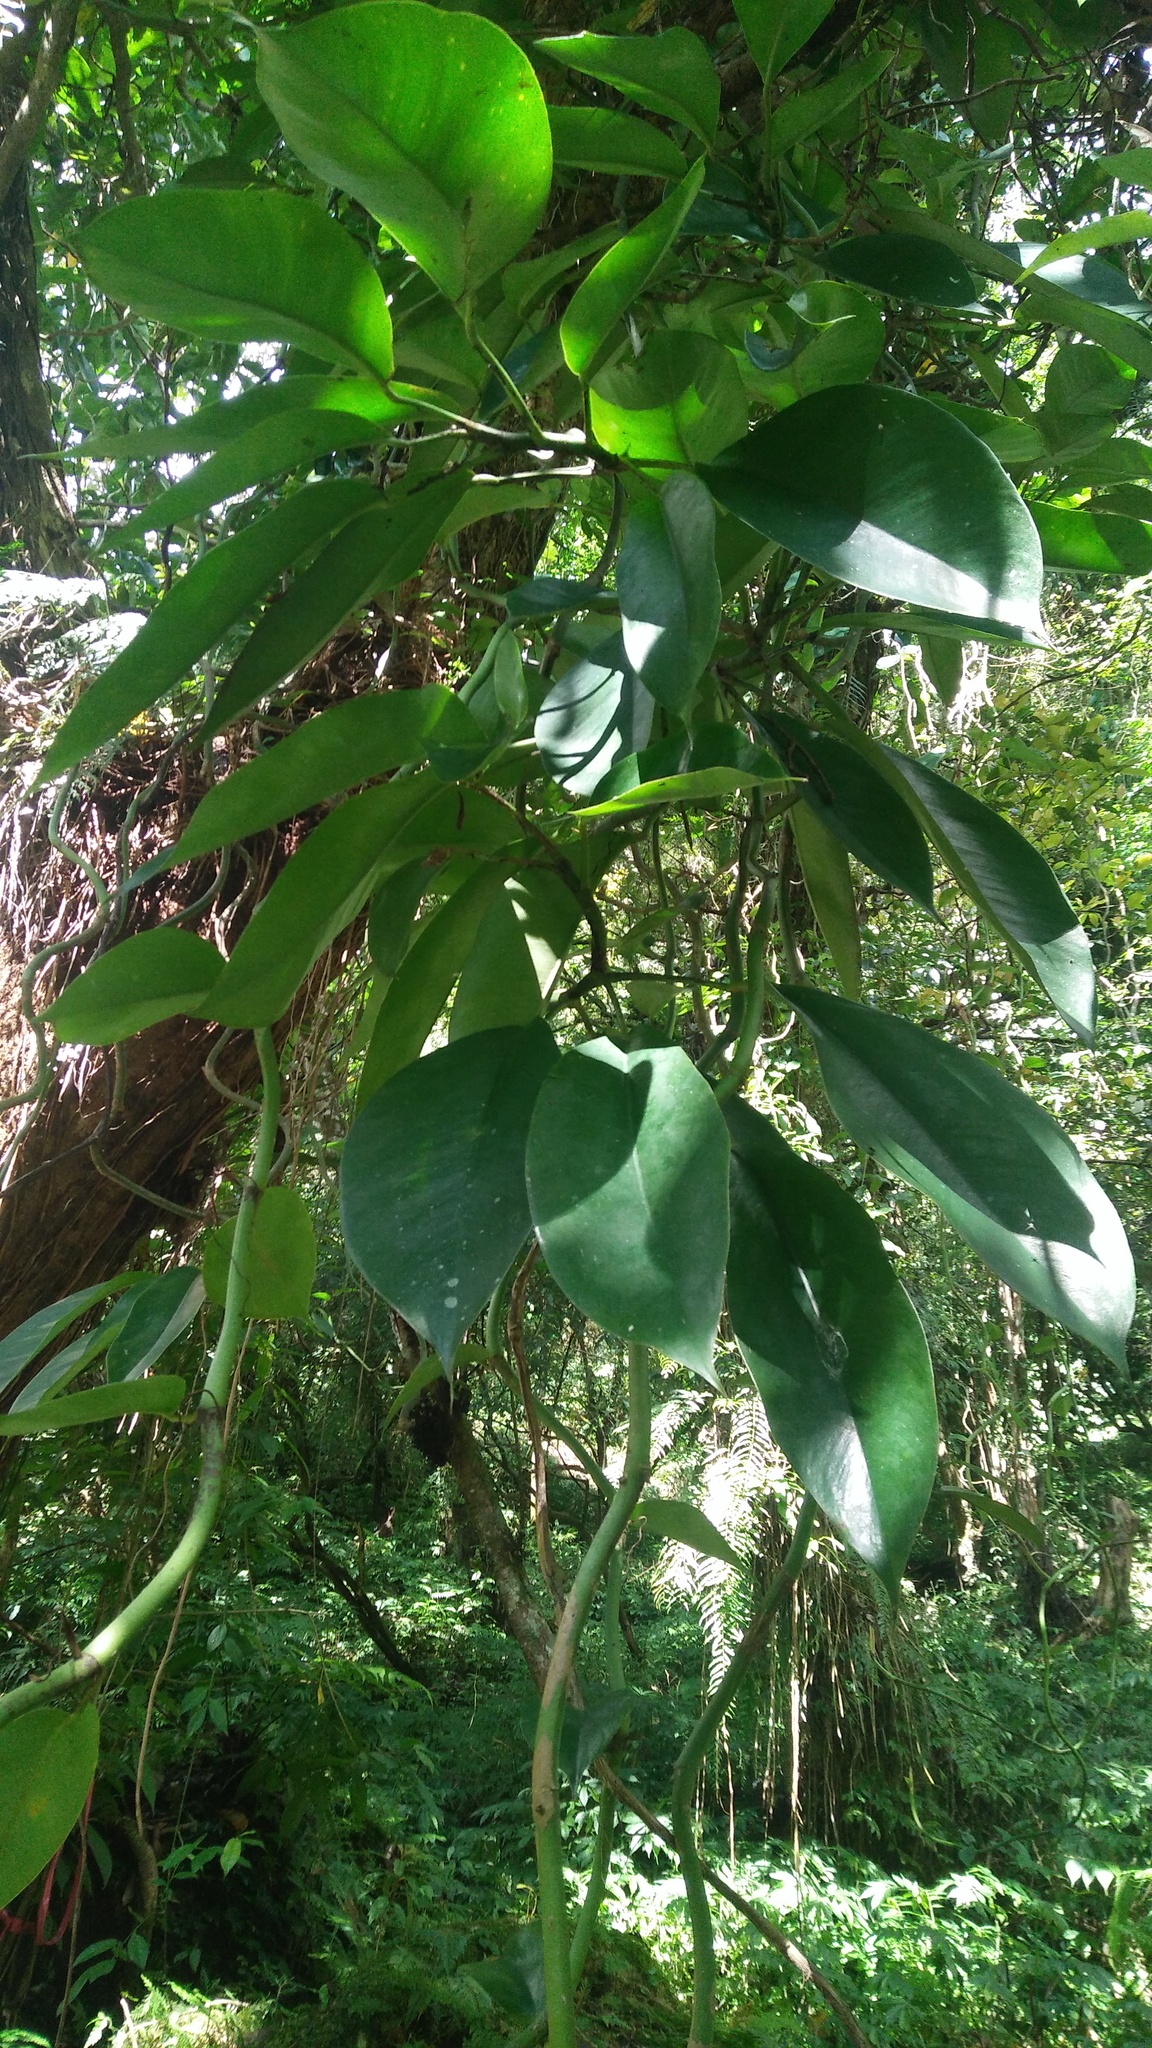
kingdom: Plantae
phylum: Tracheophyta
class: Liliopsida
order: Alismatales
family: Araceae
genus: Rhaphidophora
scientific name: Rhaphidophora hongkongensis
